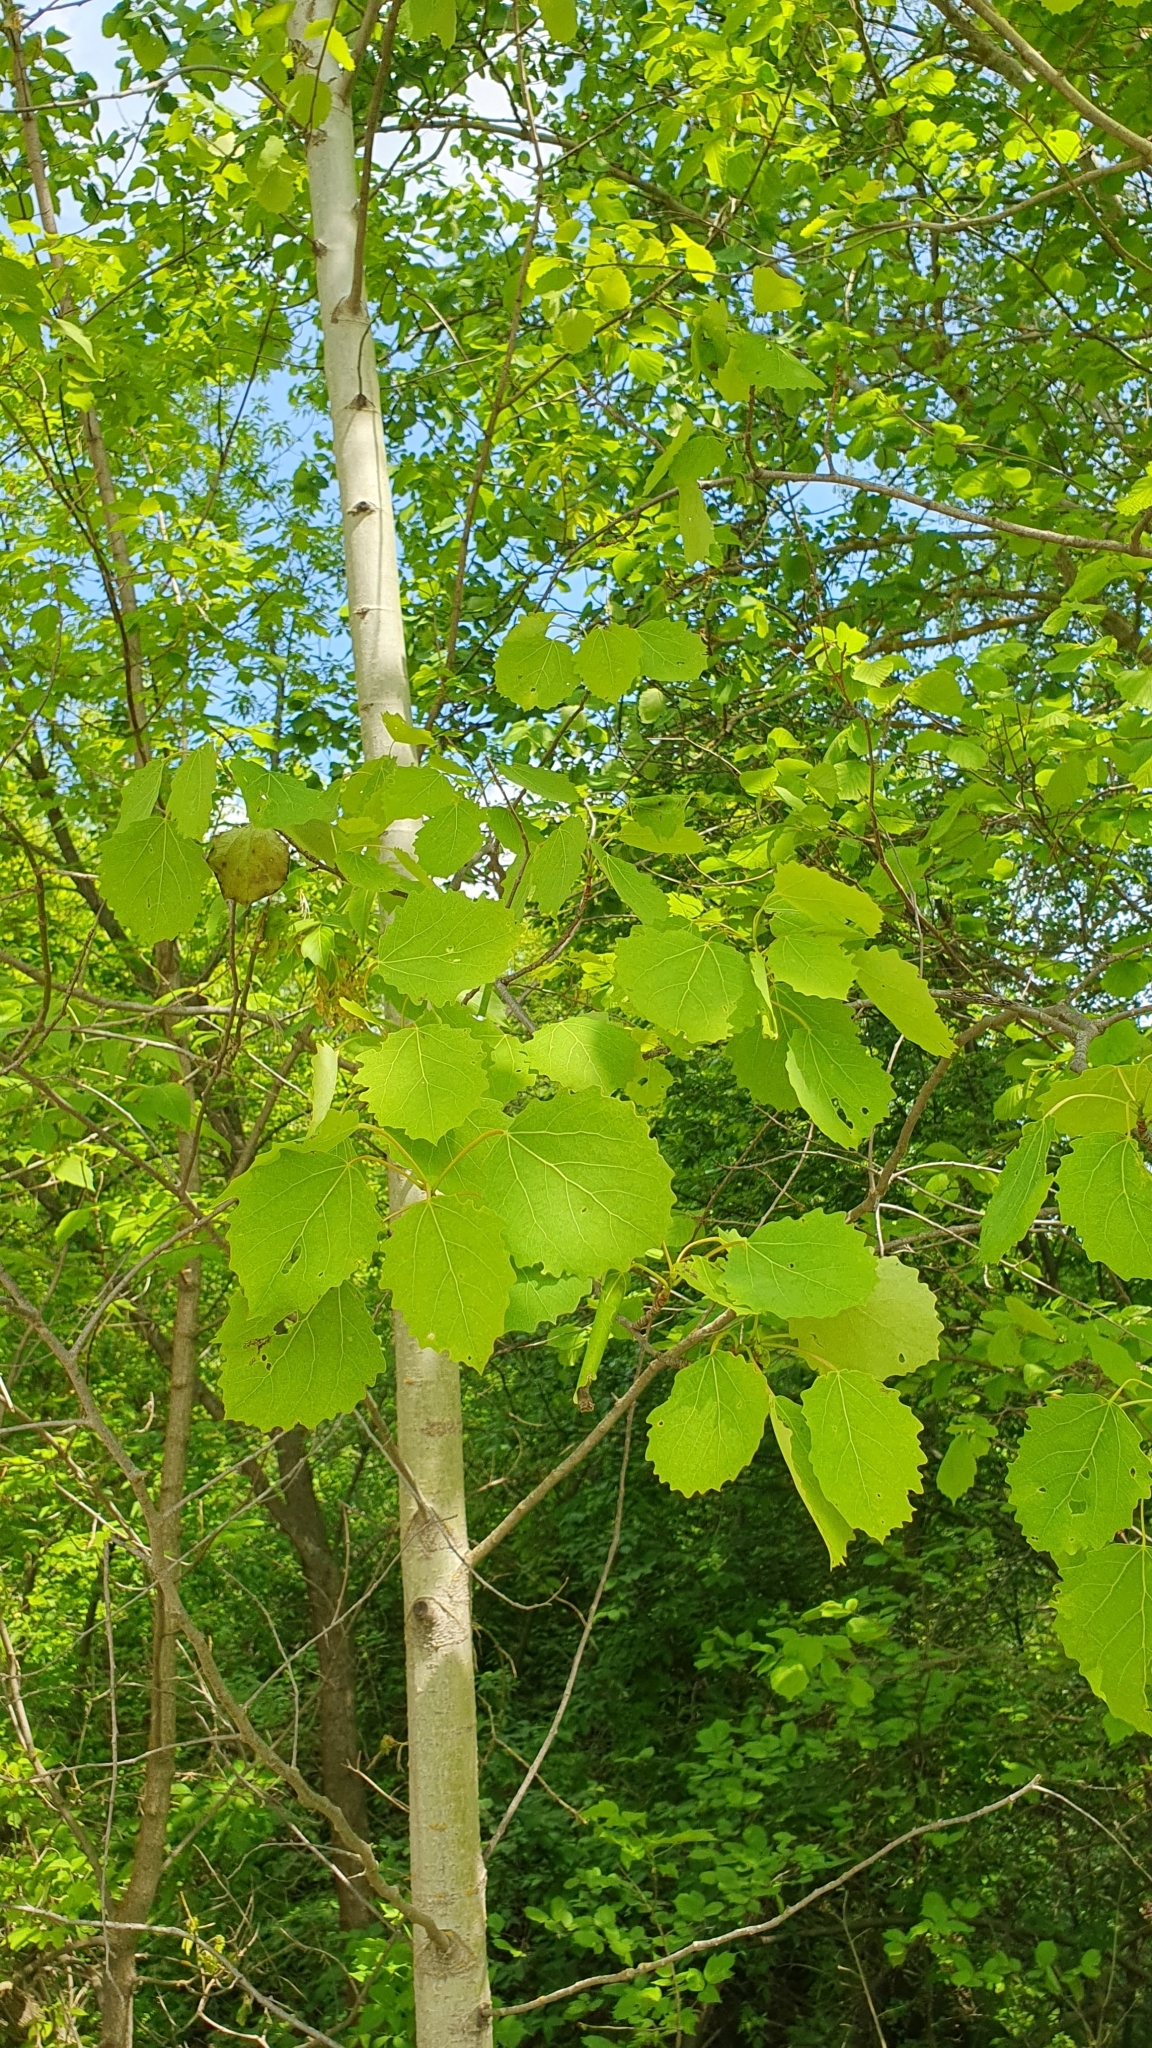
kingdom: Plantae
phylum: Tracheophyta
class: Magnoliopsida
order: Malpighiales
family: Salicaceae
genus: Populus
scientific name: Populus tremula
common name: European aspen
